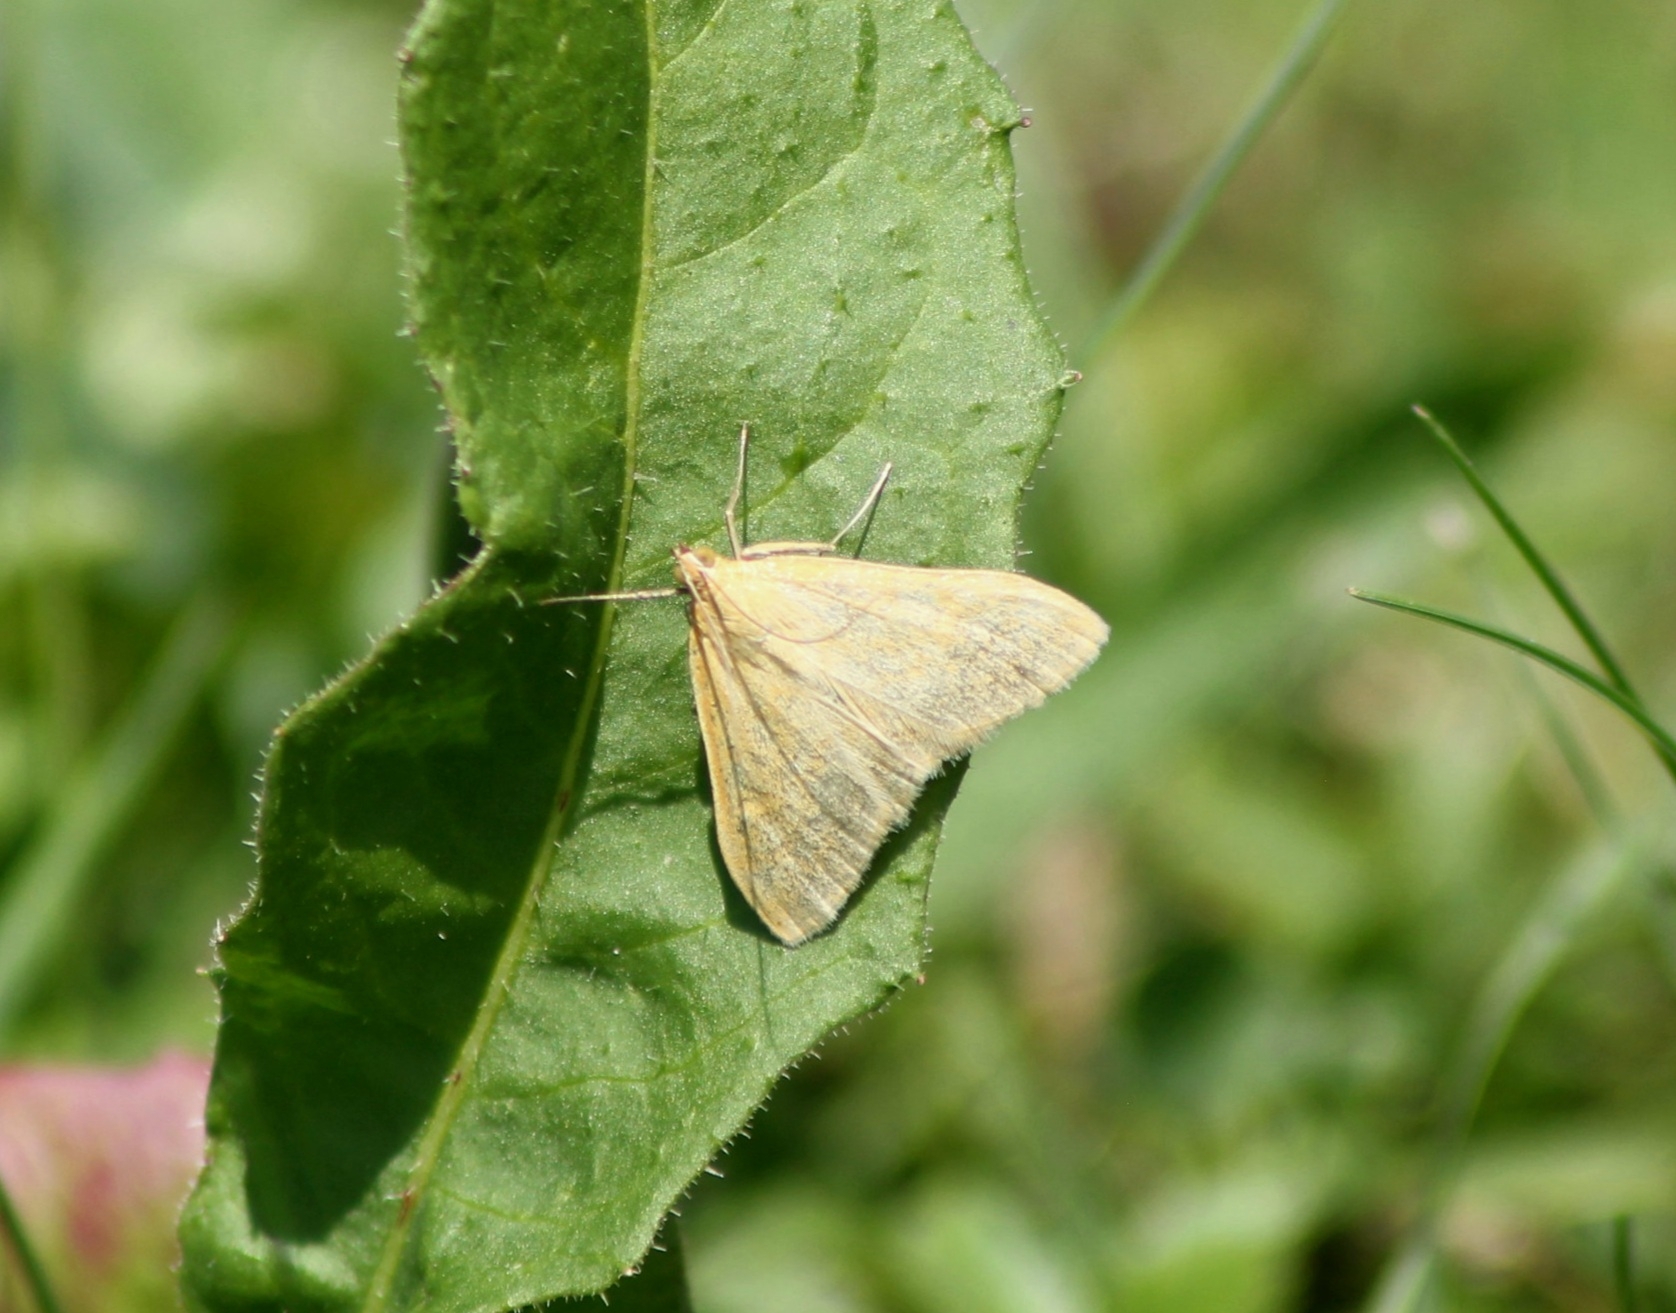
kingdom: Animalia
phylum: Arthropoda
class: Insecta
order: Lepidoptera
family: Crambidae
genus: Sitochroa
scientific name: Sitochroa verticalis
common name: Lesser pearl
